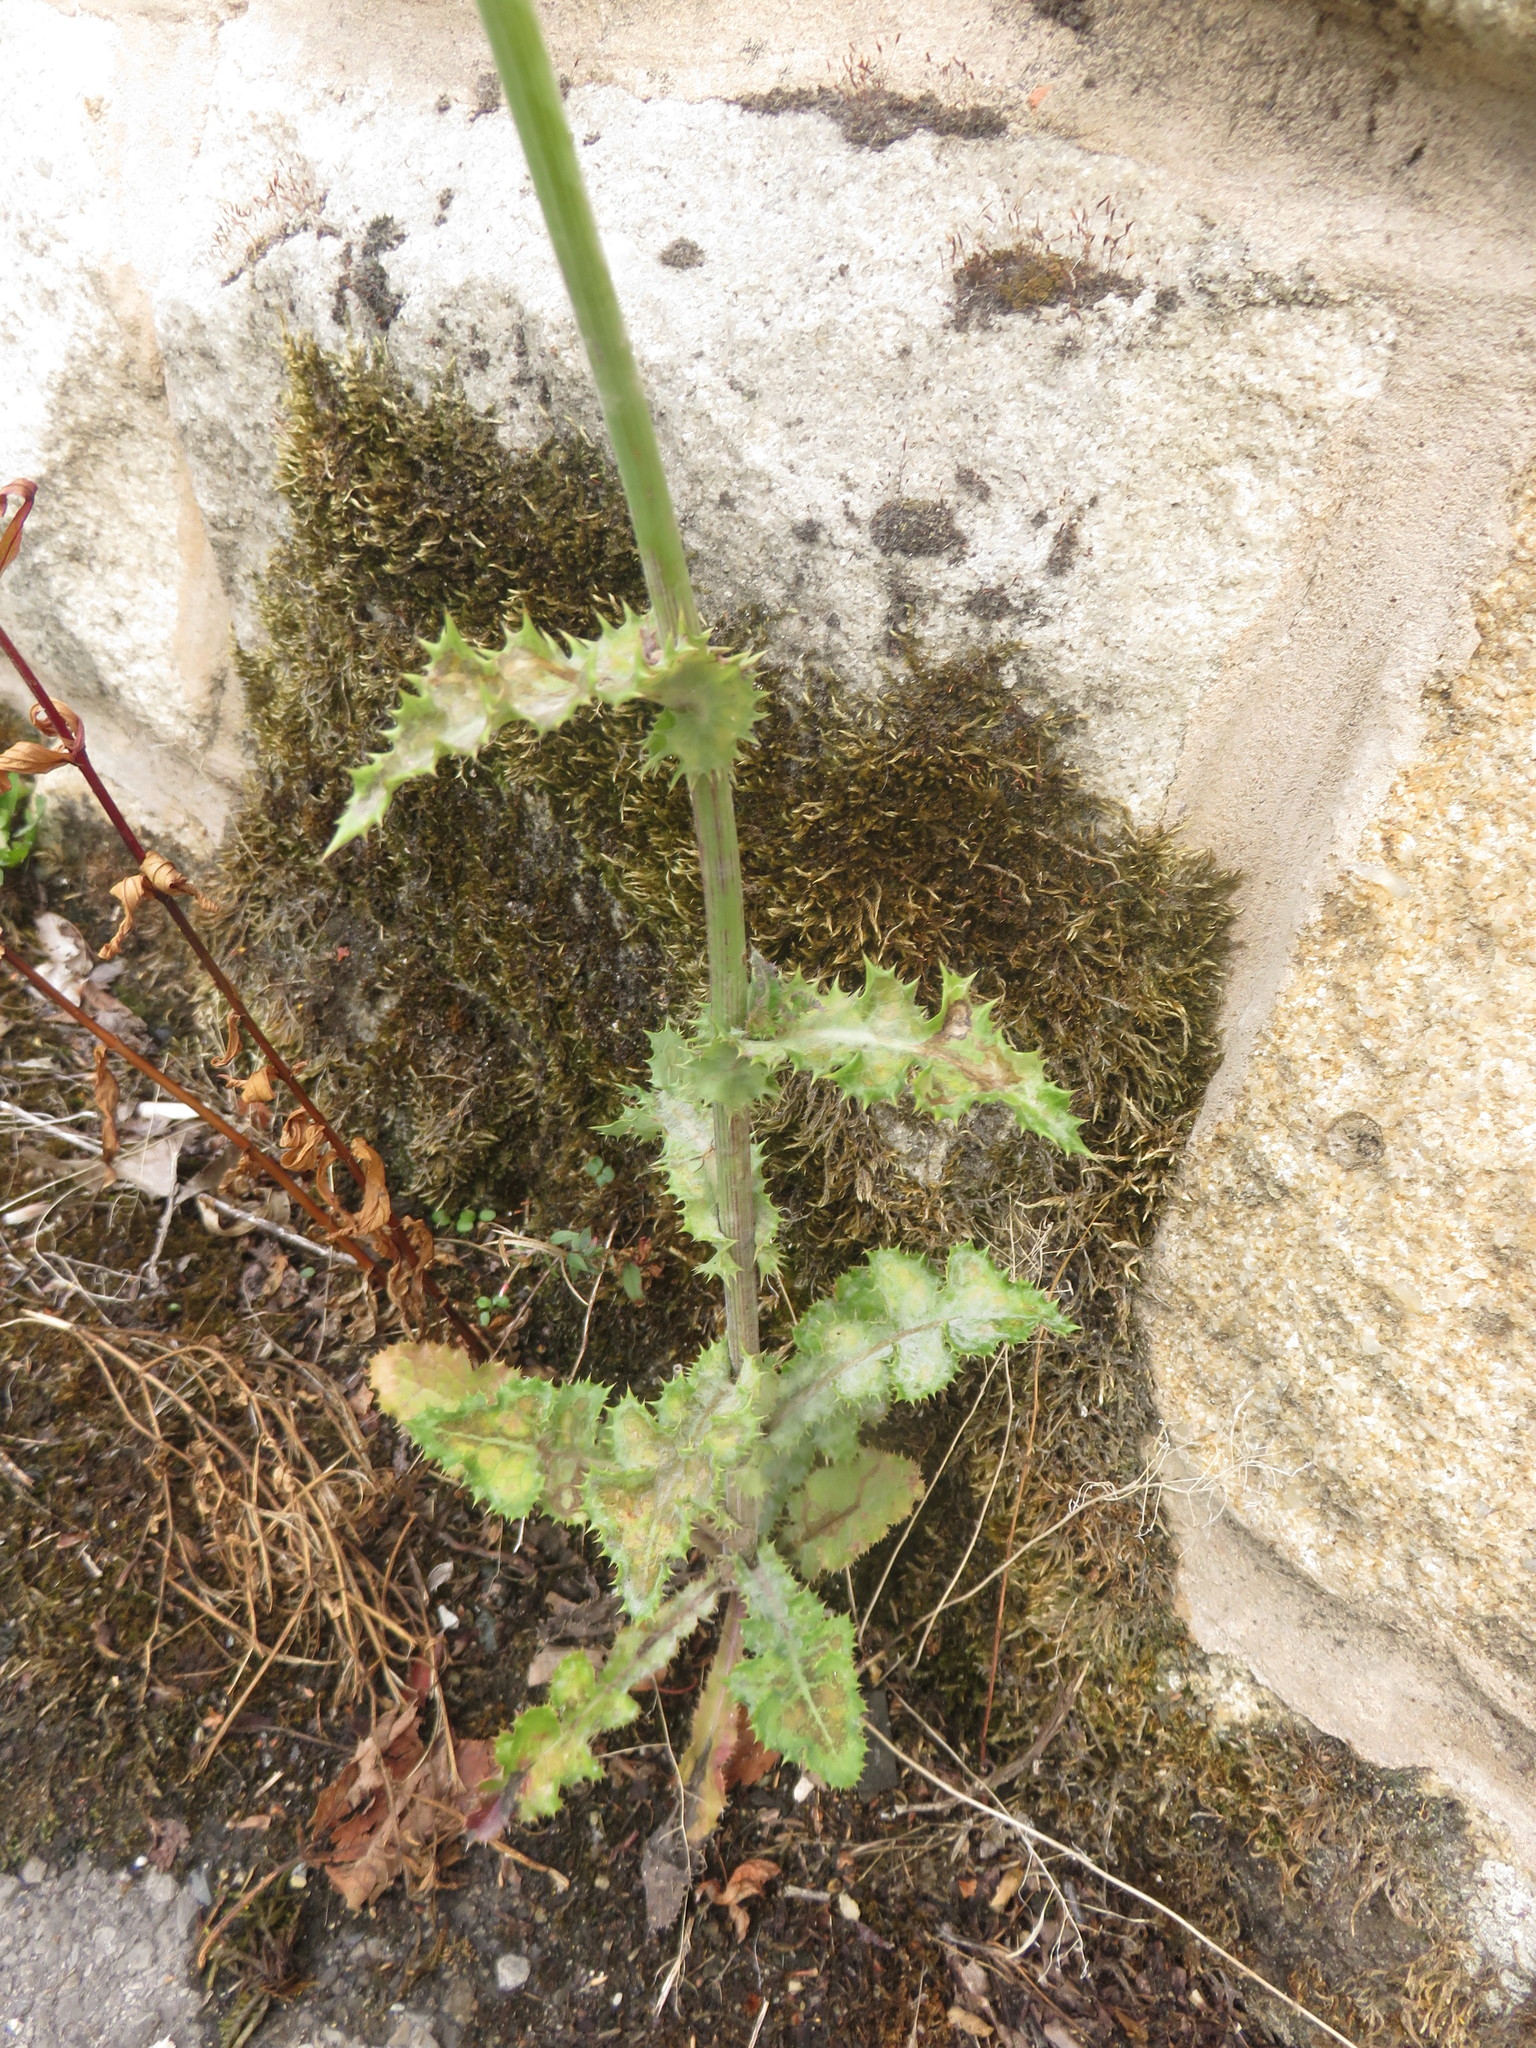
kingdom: Plantae
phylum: Tracheophyta
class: Magnoliopsida
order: Asterales
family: Asteraceae
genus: Sonchus
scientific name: Sonchus asper
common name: Prickly sow-thistle
